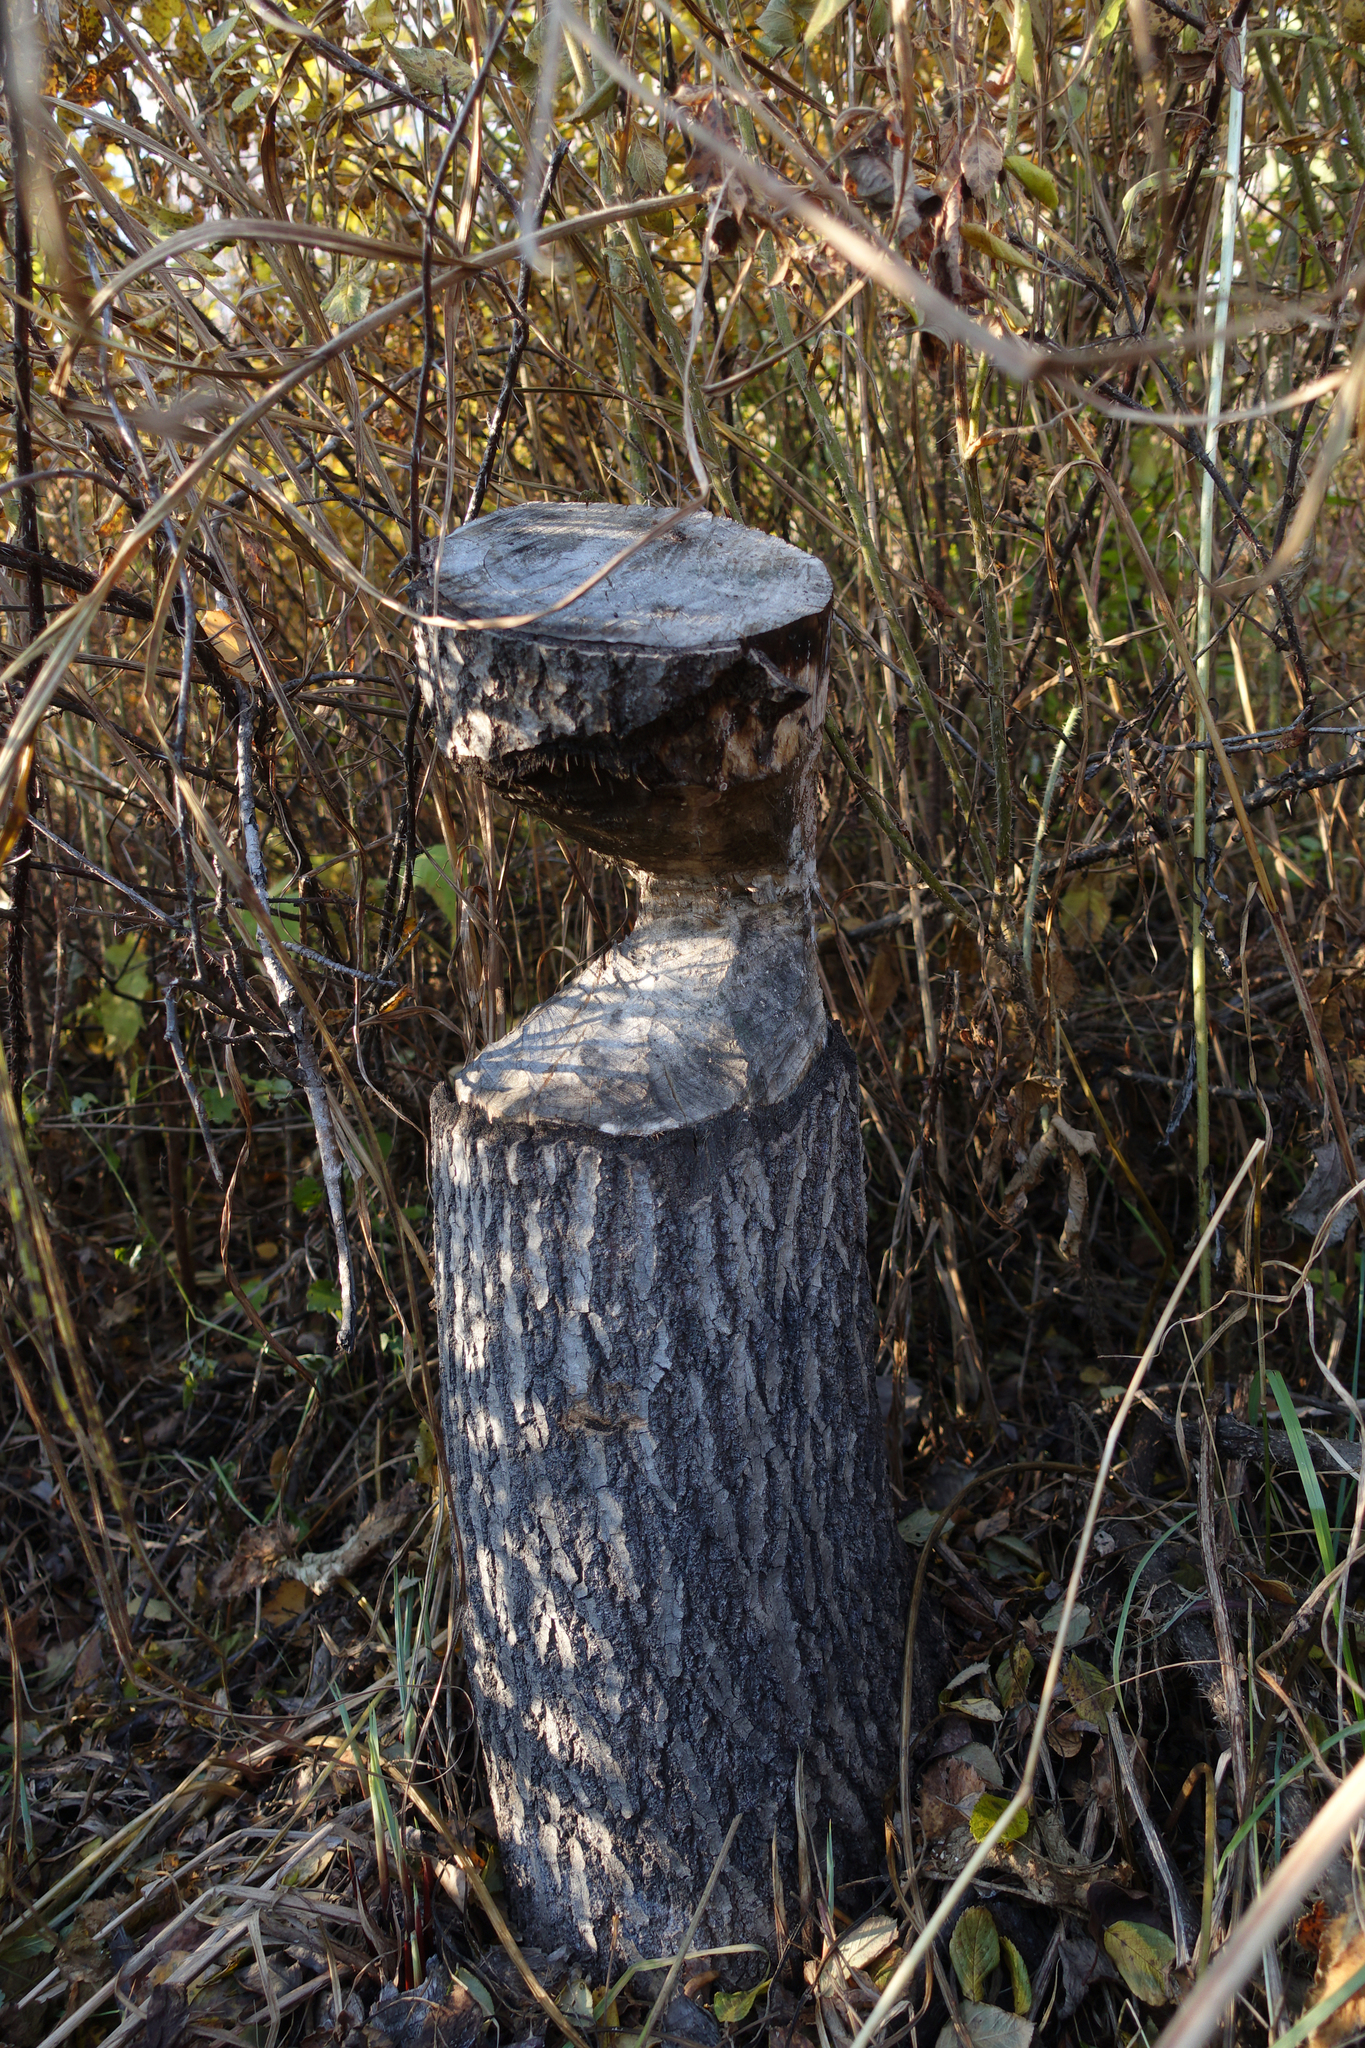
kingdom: Animalia
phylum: Chordata
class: Mammalia
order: Rodentia
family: Castoridae
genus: Castor
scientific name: Castor fiber
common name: Eurasian beaver
